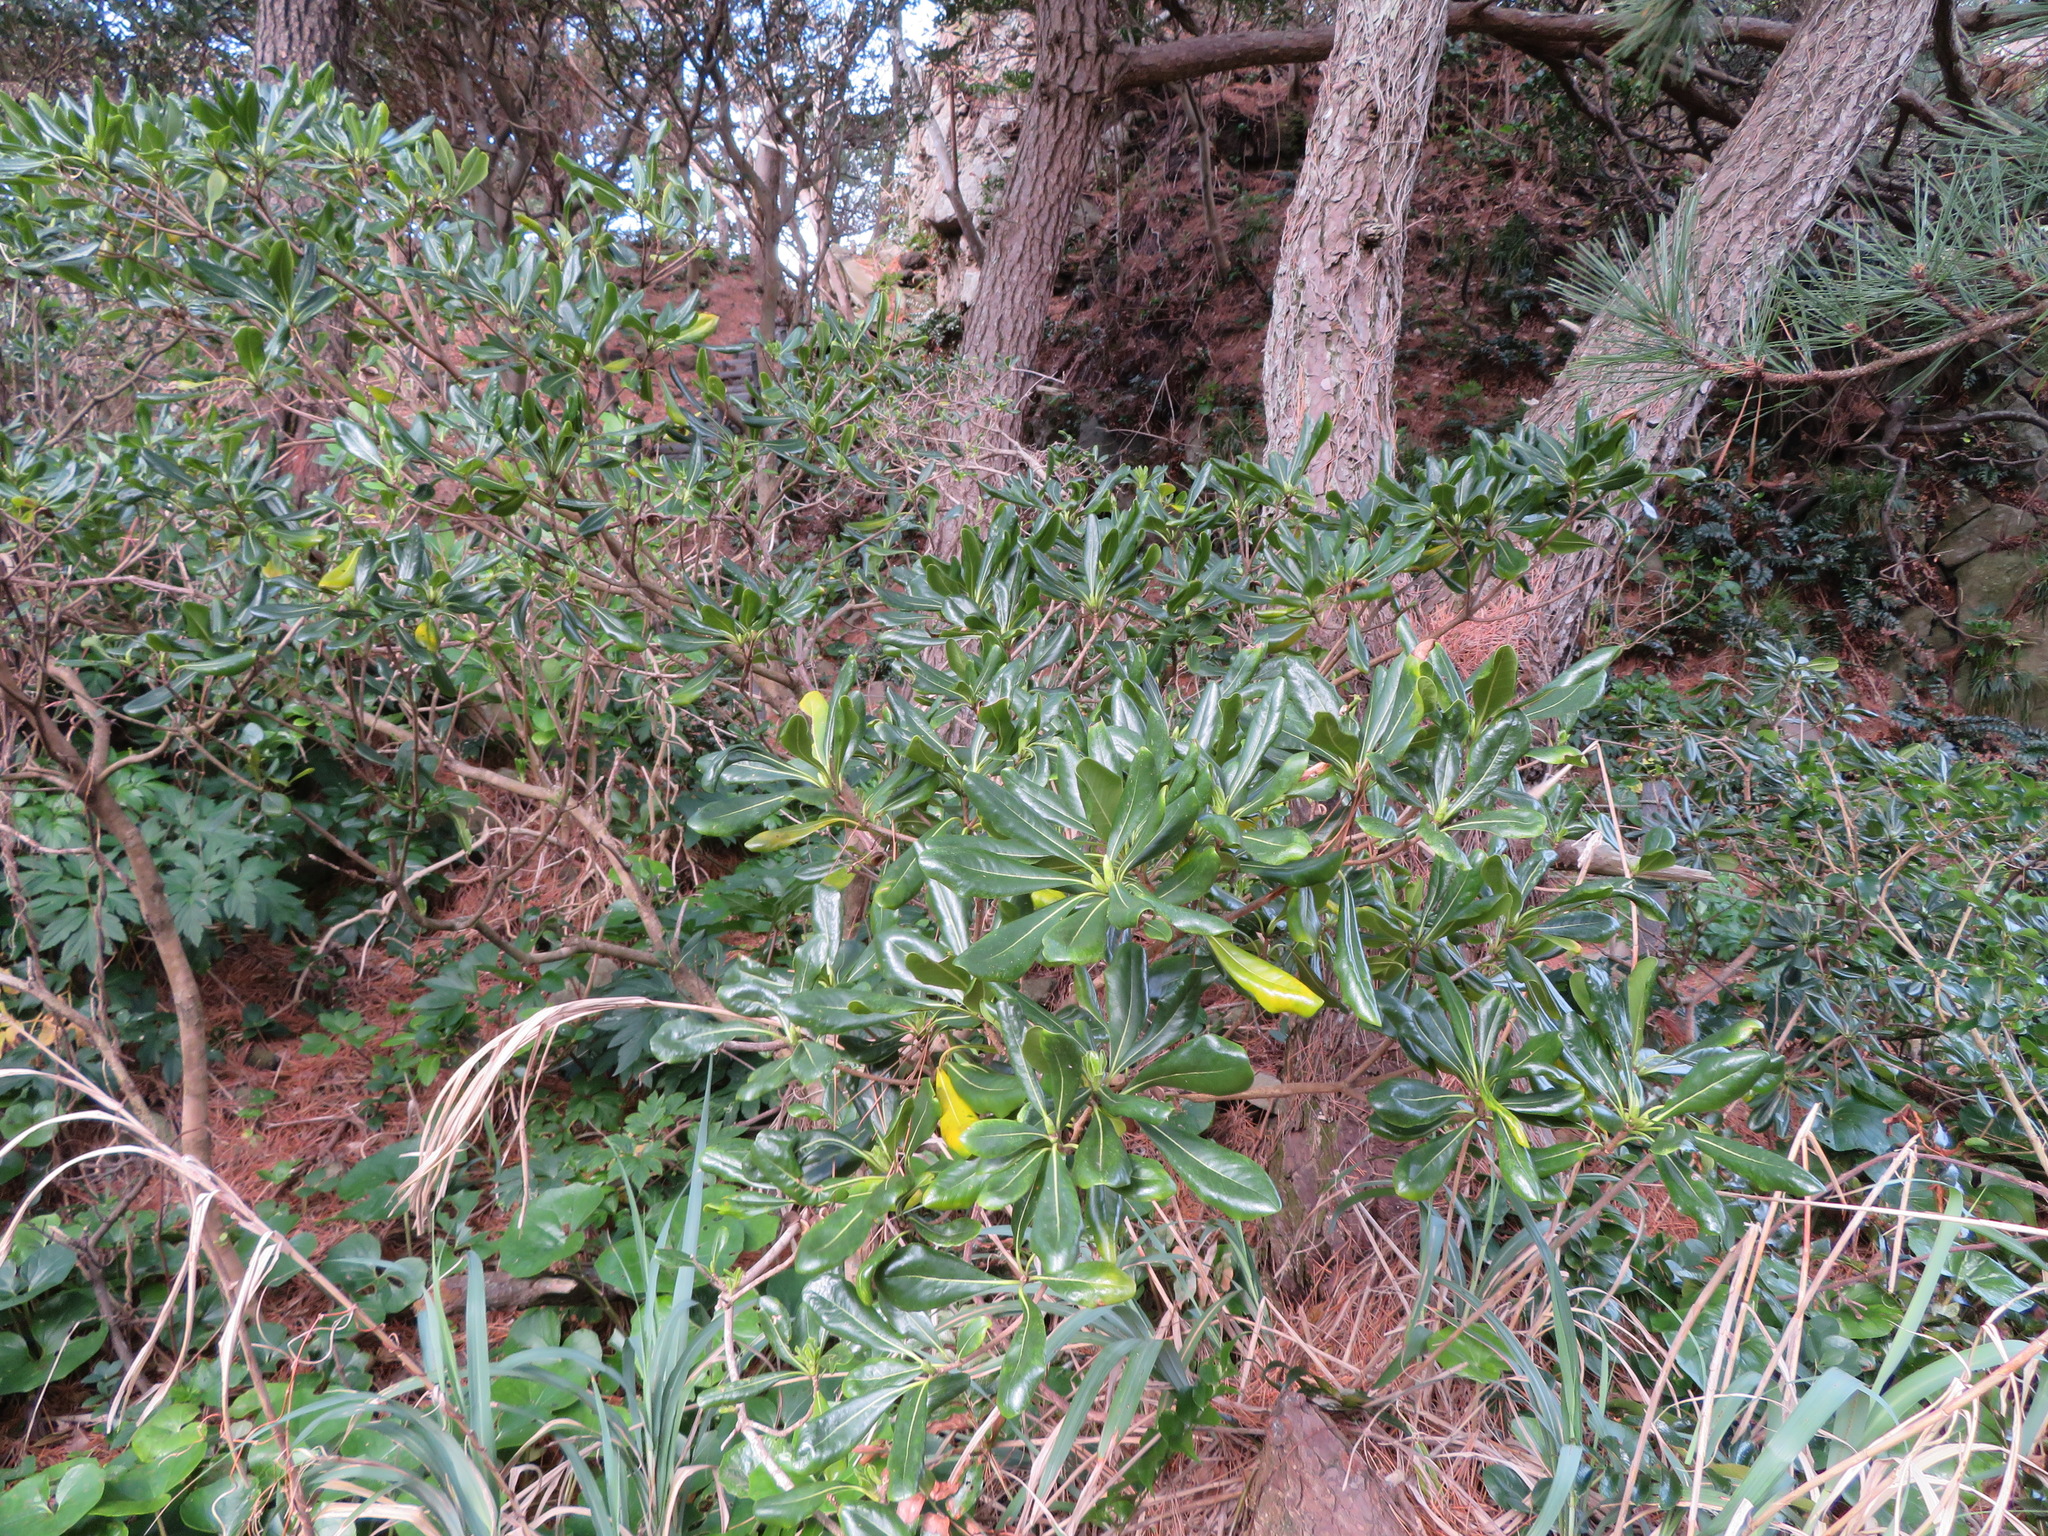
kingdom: Plantae
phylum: Tracheophyta
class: Magnoliopsida
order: Apiales
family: Pittosporaceae
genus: Pittosporum
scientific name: Pittosporum tobira
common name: Japanese cheesewood
